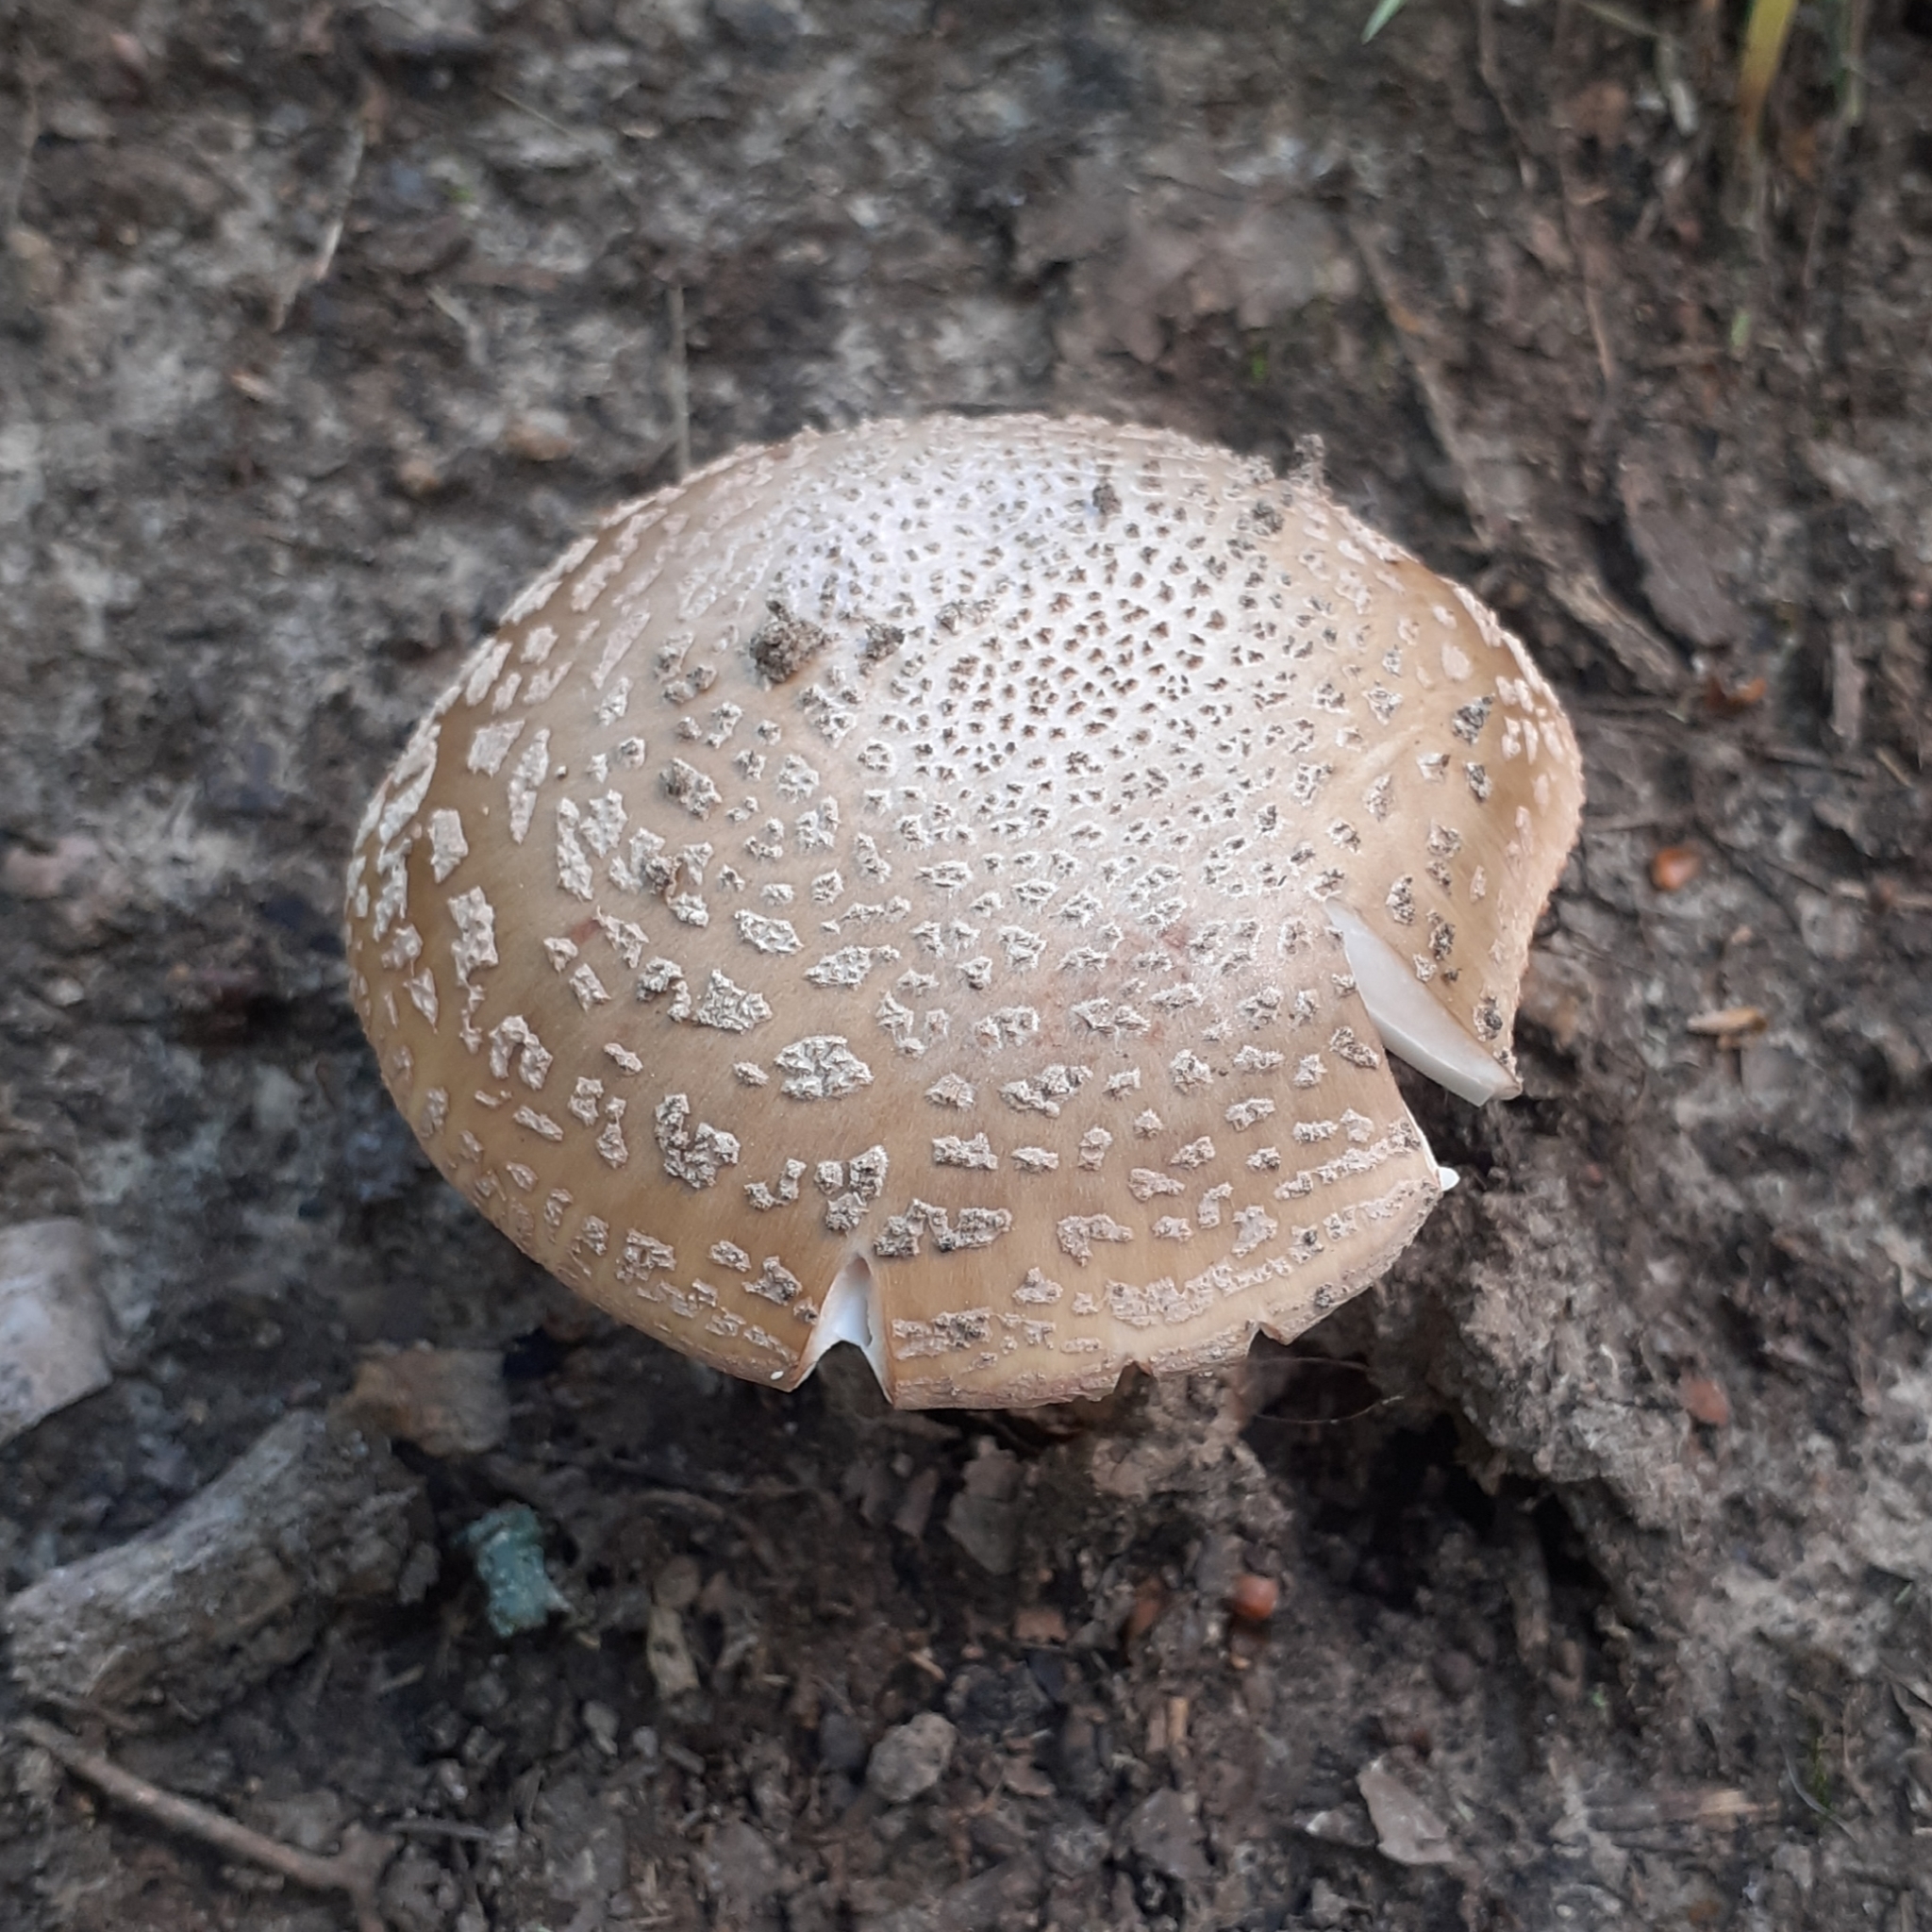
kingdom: Fungi
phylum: Basidiomycota
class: Agaricomycetes
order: Agaricales
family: Amanitaceae
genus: Amanita
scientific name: Amanita rubescens
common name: Blusher
